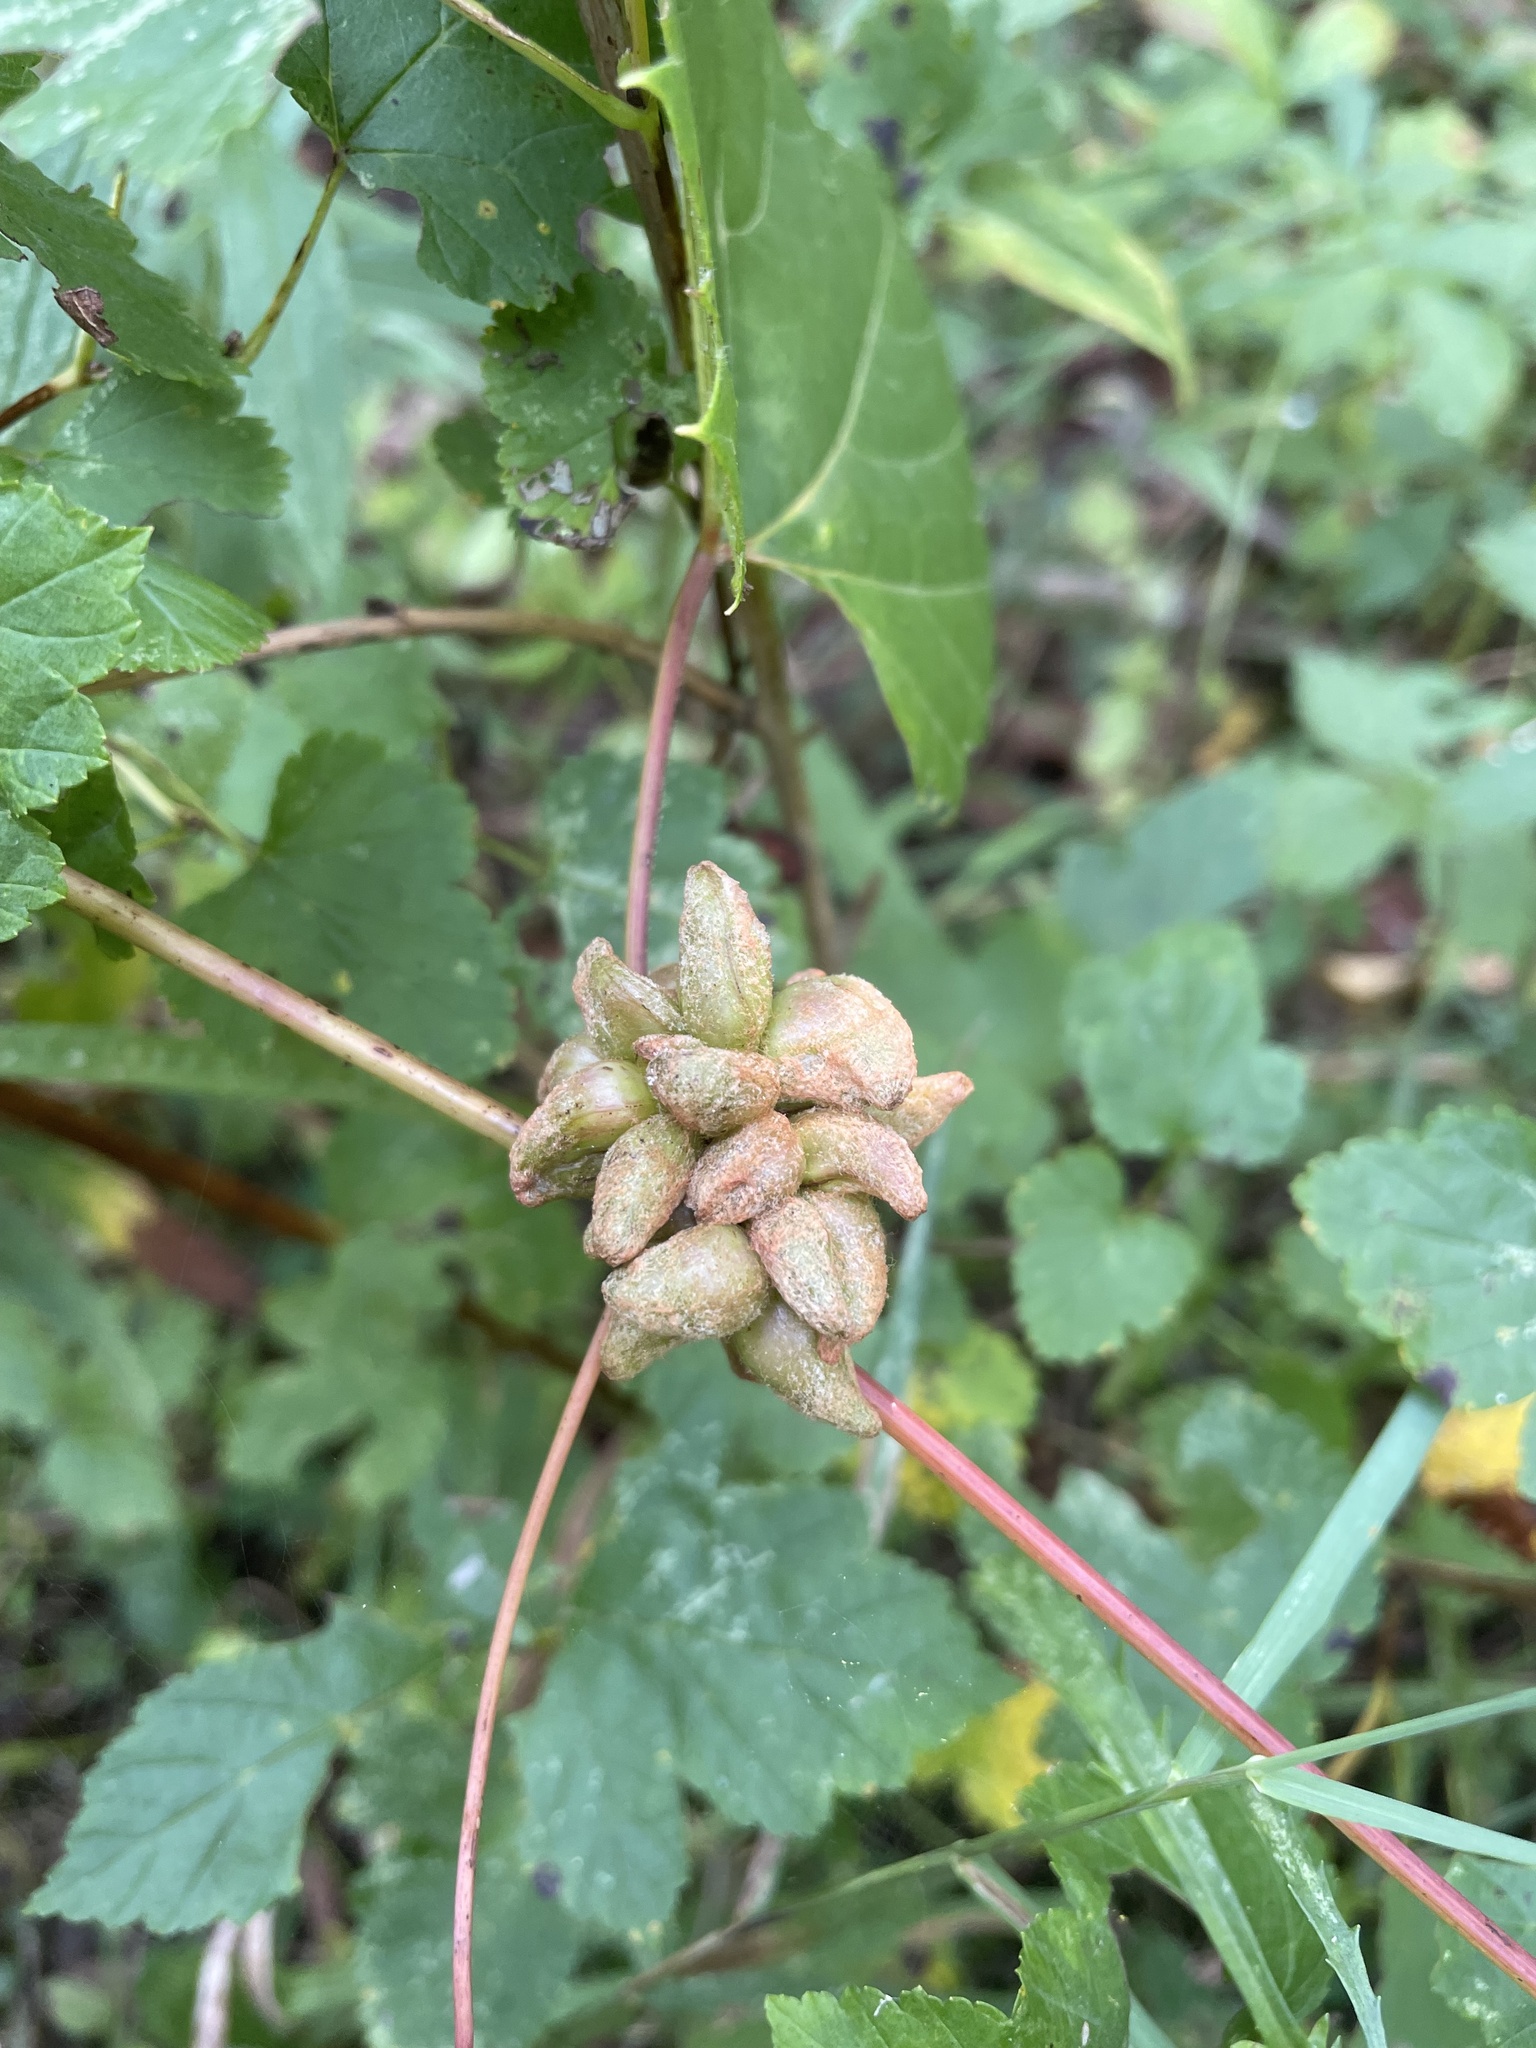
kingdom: Animalia
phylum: Arthropoda
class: Insecta
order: Diptera
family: Cecidomyiidae
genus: Ampelomyia
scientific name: Ampelomyia vitiscoryloides
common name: Grape filbert gall
